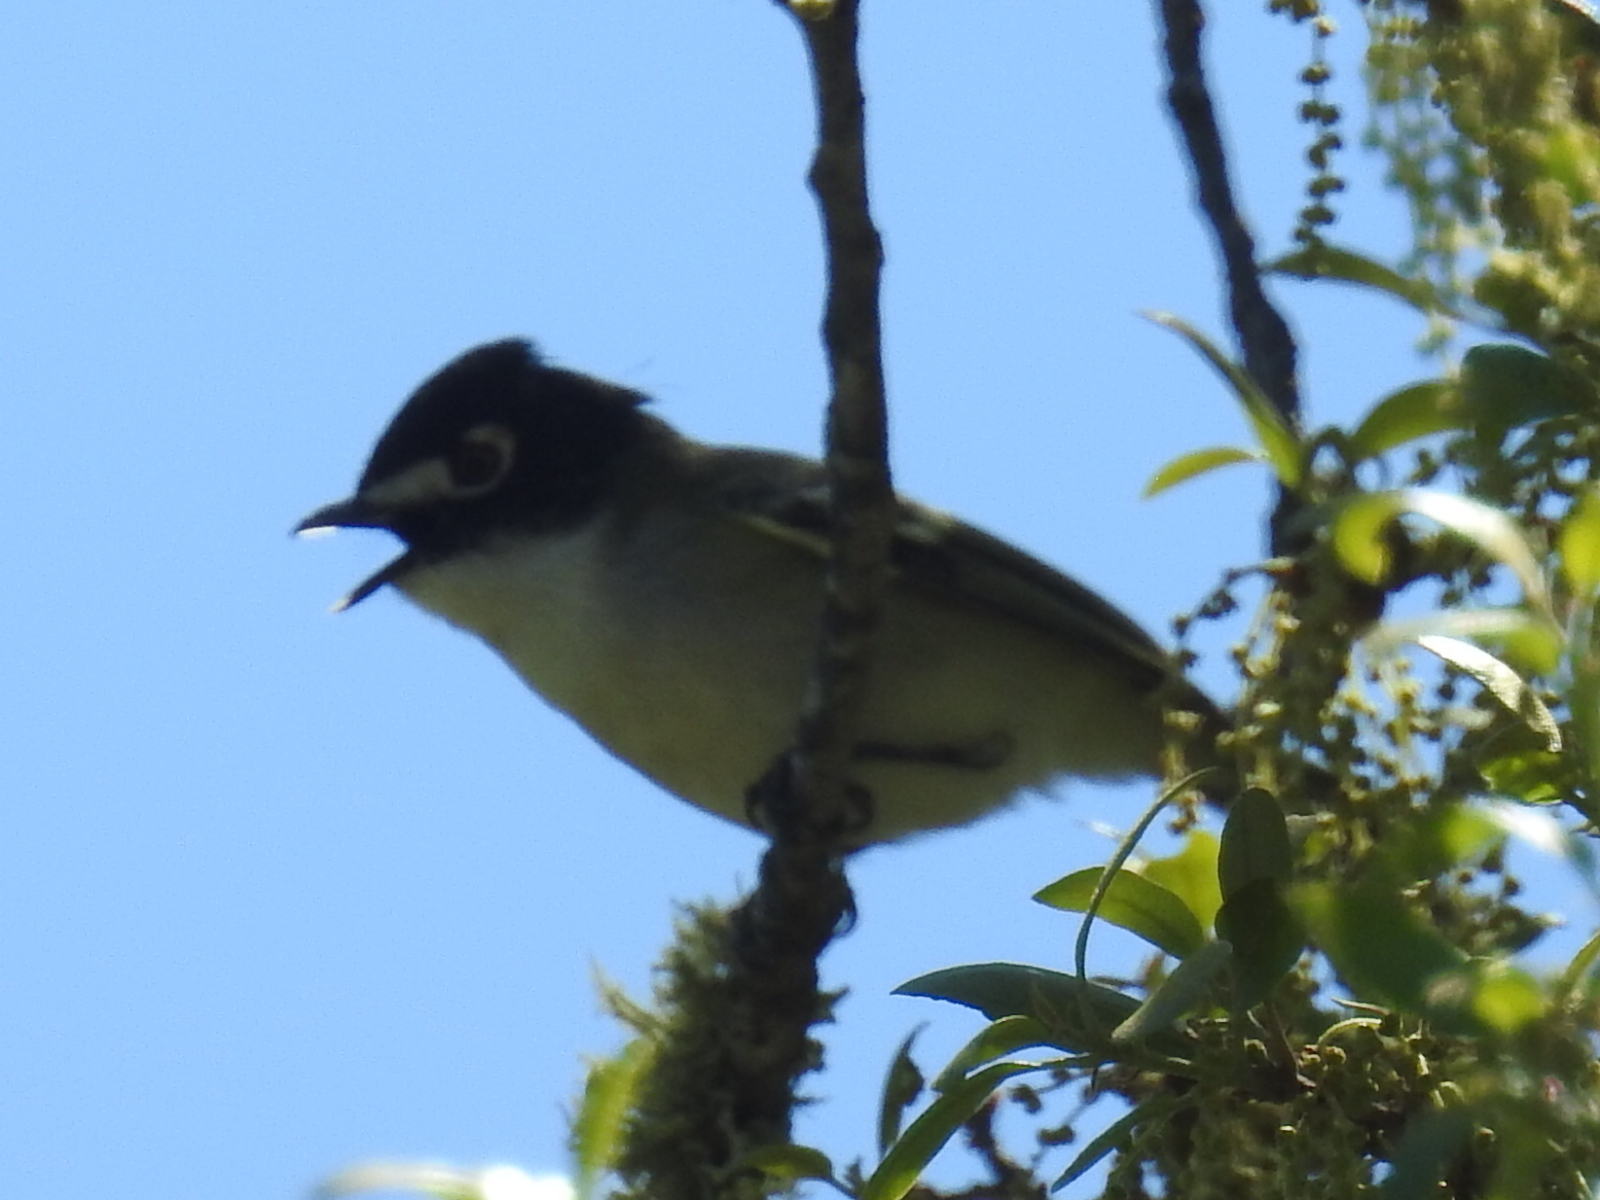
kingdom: Animalia
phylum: Chordata
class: Aves
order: Passeriformes
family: Vireonidae
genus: Vireo
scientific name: Vireo atricapilla
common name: Black-capped vireo
